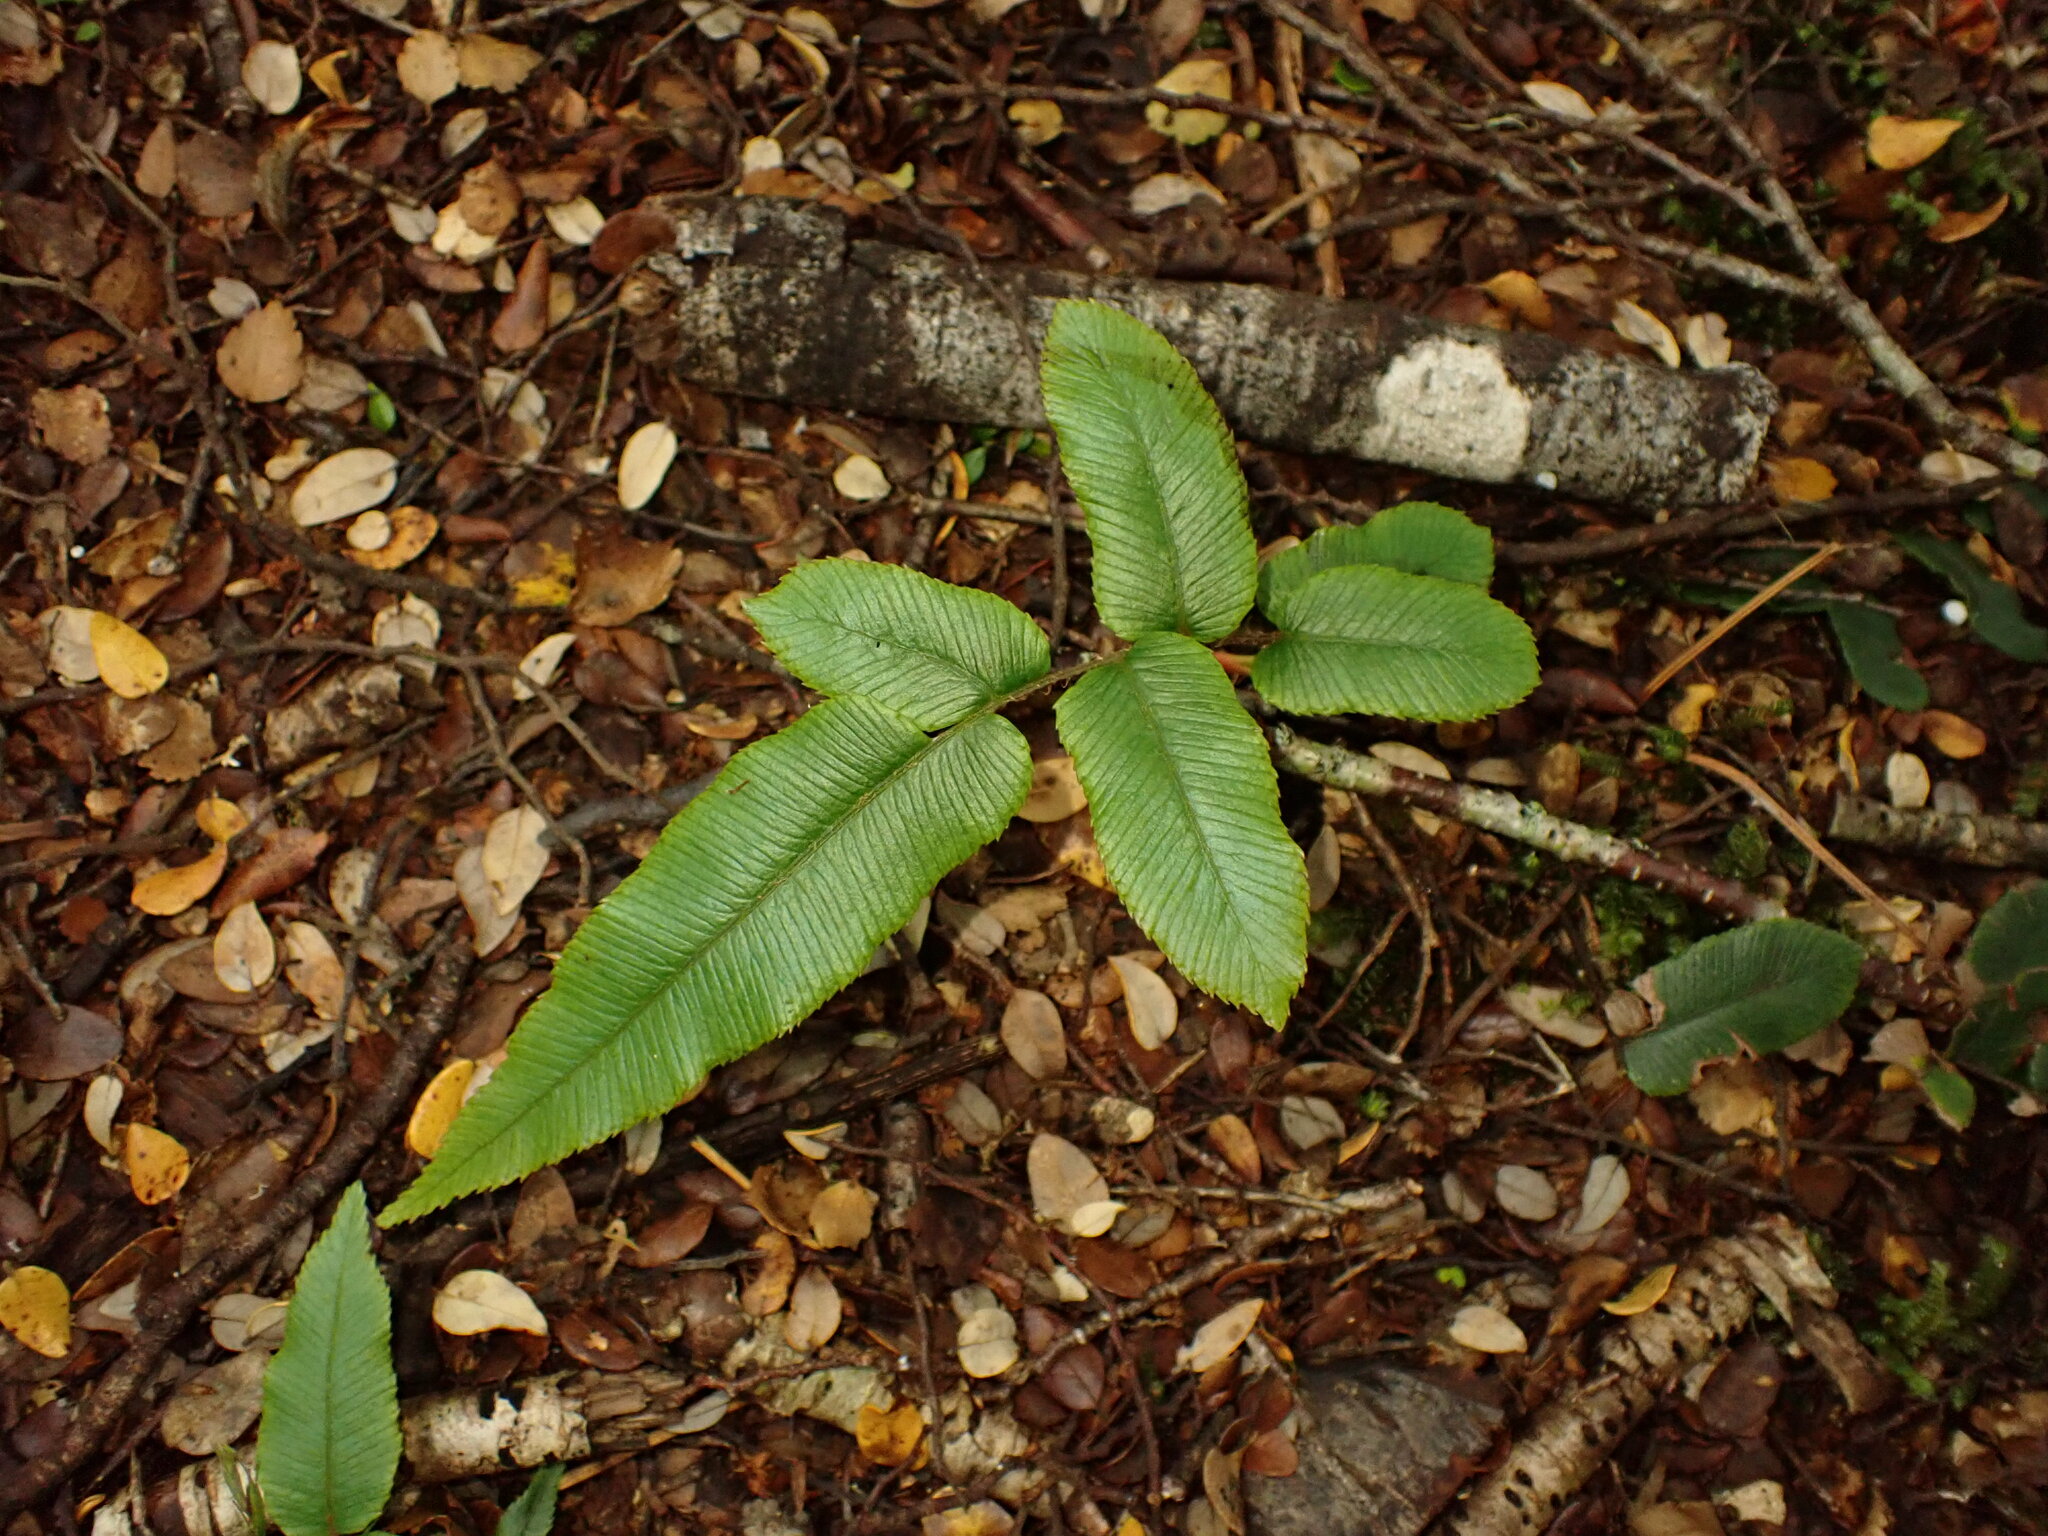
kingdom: Plantae
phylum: Tracheophyta
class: Polypodiopsida
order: Polypodiales
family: Blechnaceae
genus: Parablechnum
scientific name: Parablechnum procerum
